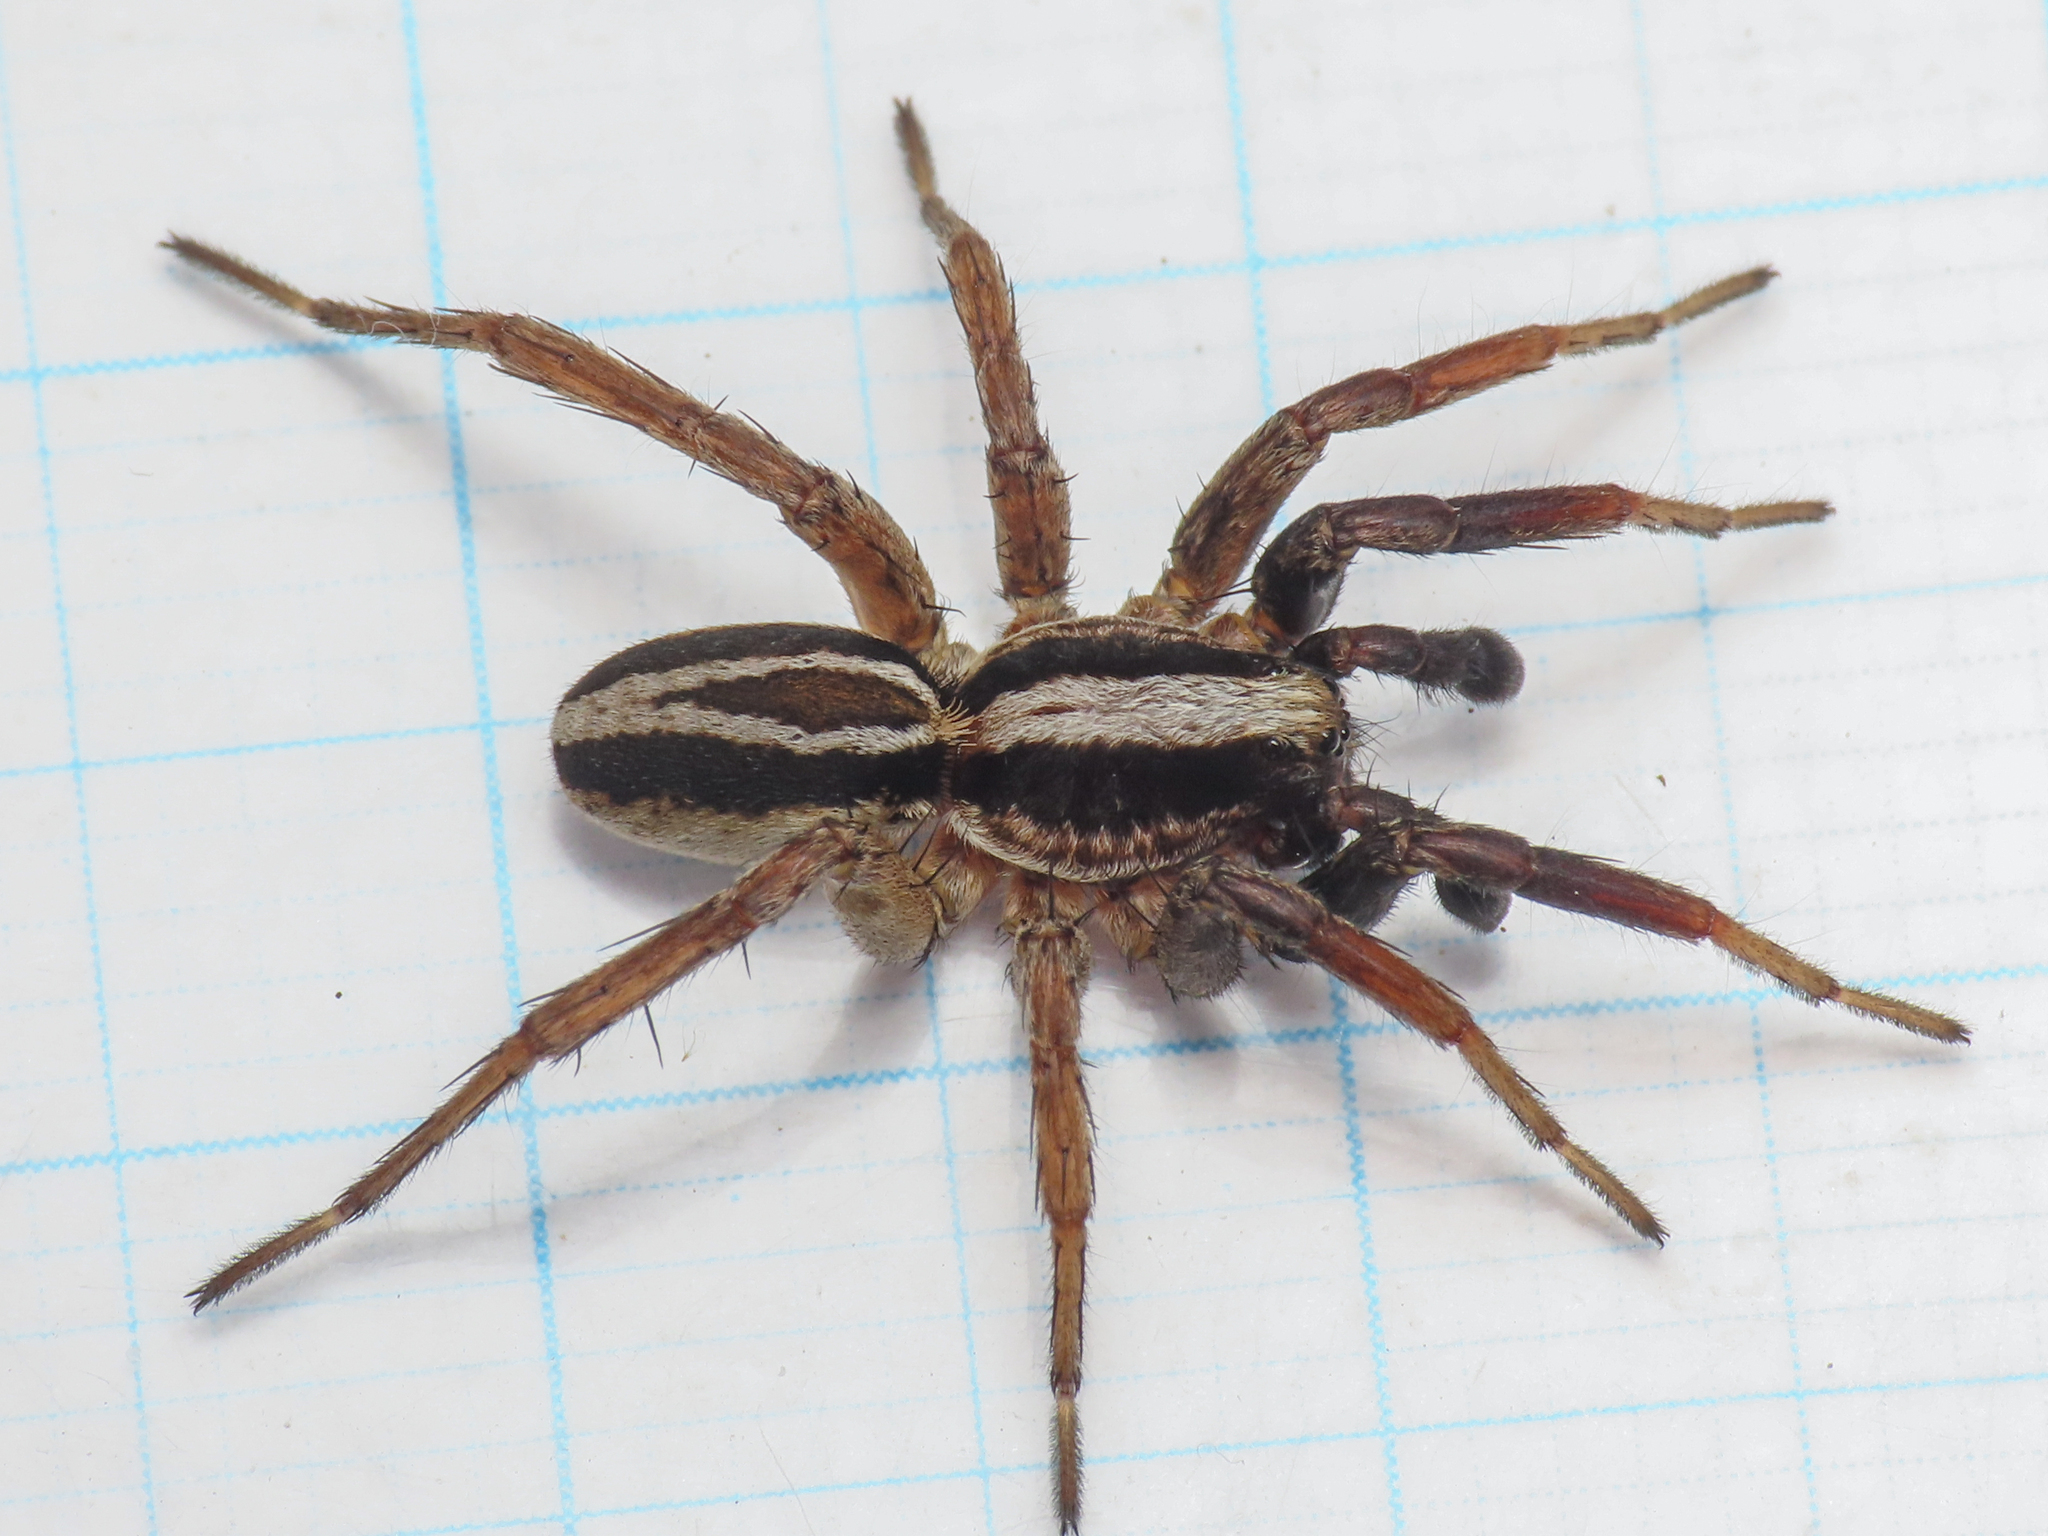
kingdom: Animalia
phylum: Arthropoda
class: Arachnida
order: Araneae
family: Lycosidae
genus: Alopecosa
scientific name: Alopecosa trabalis
